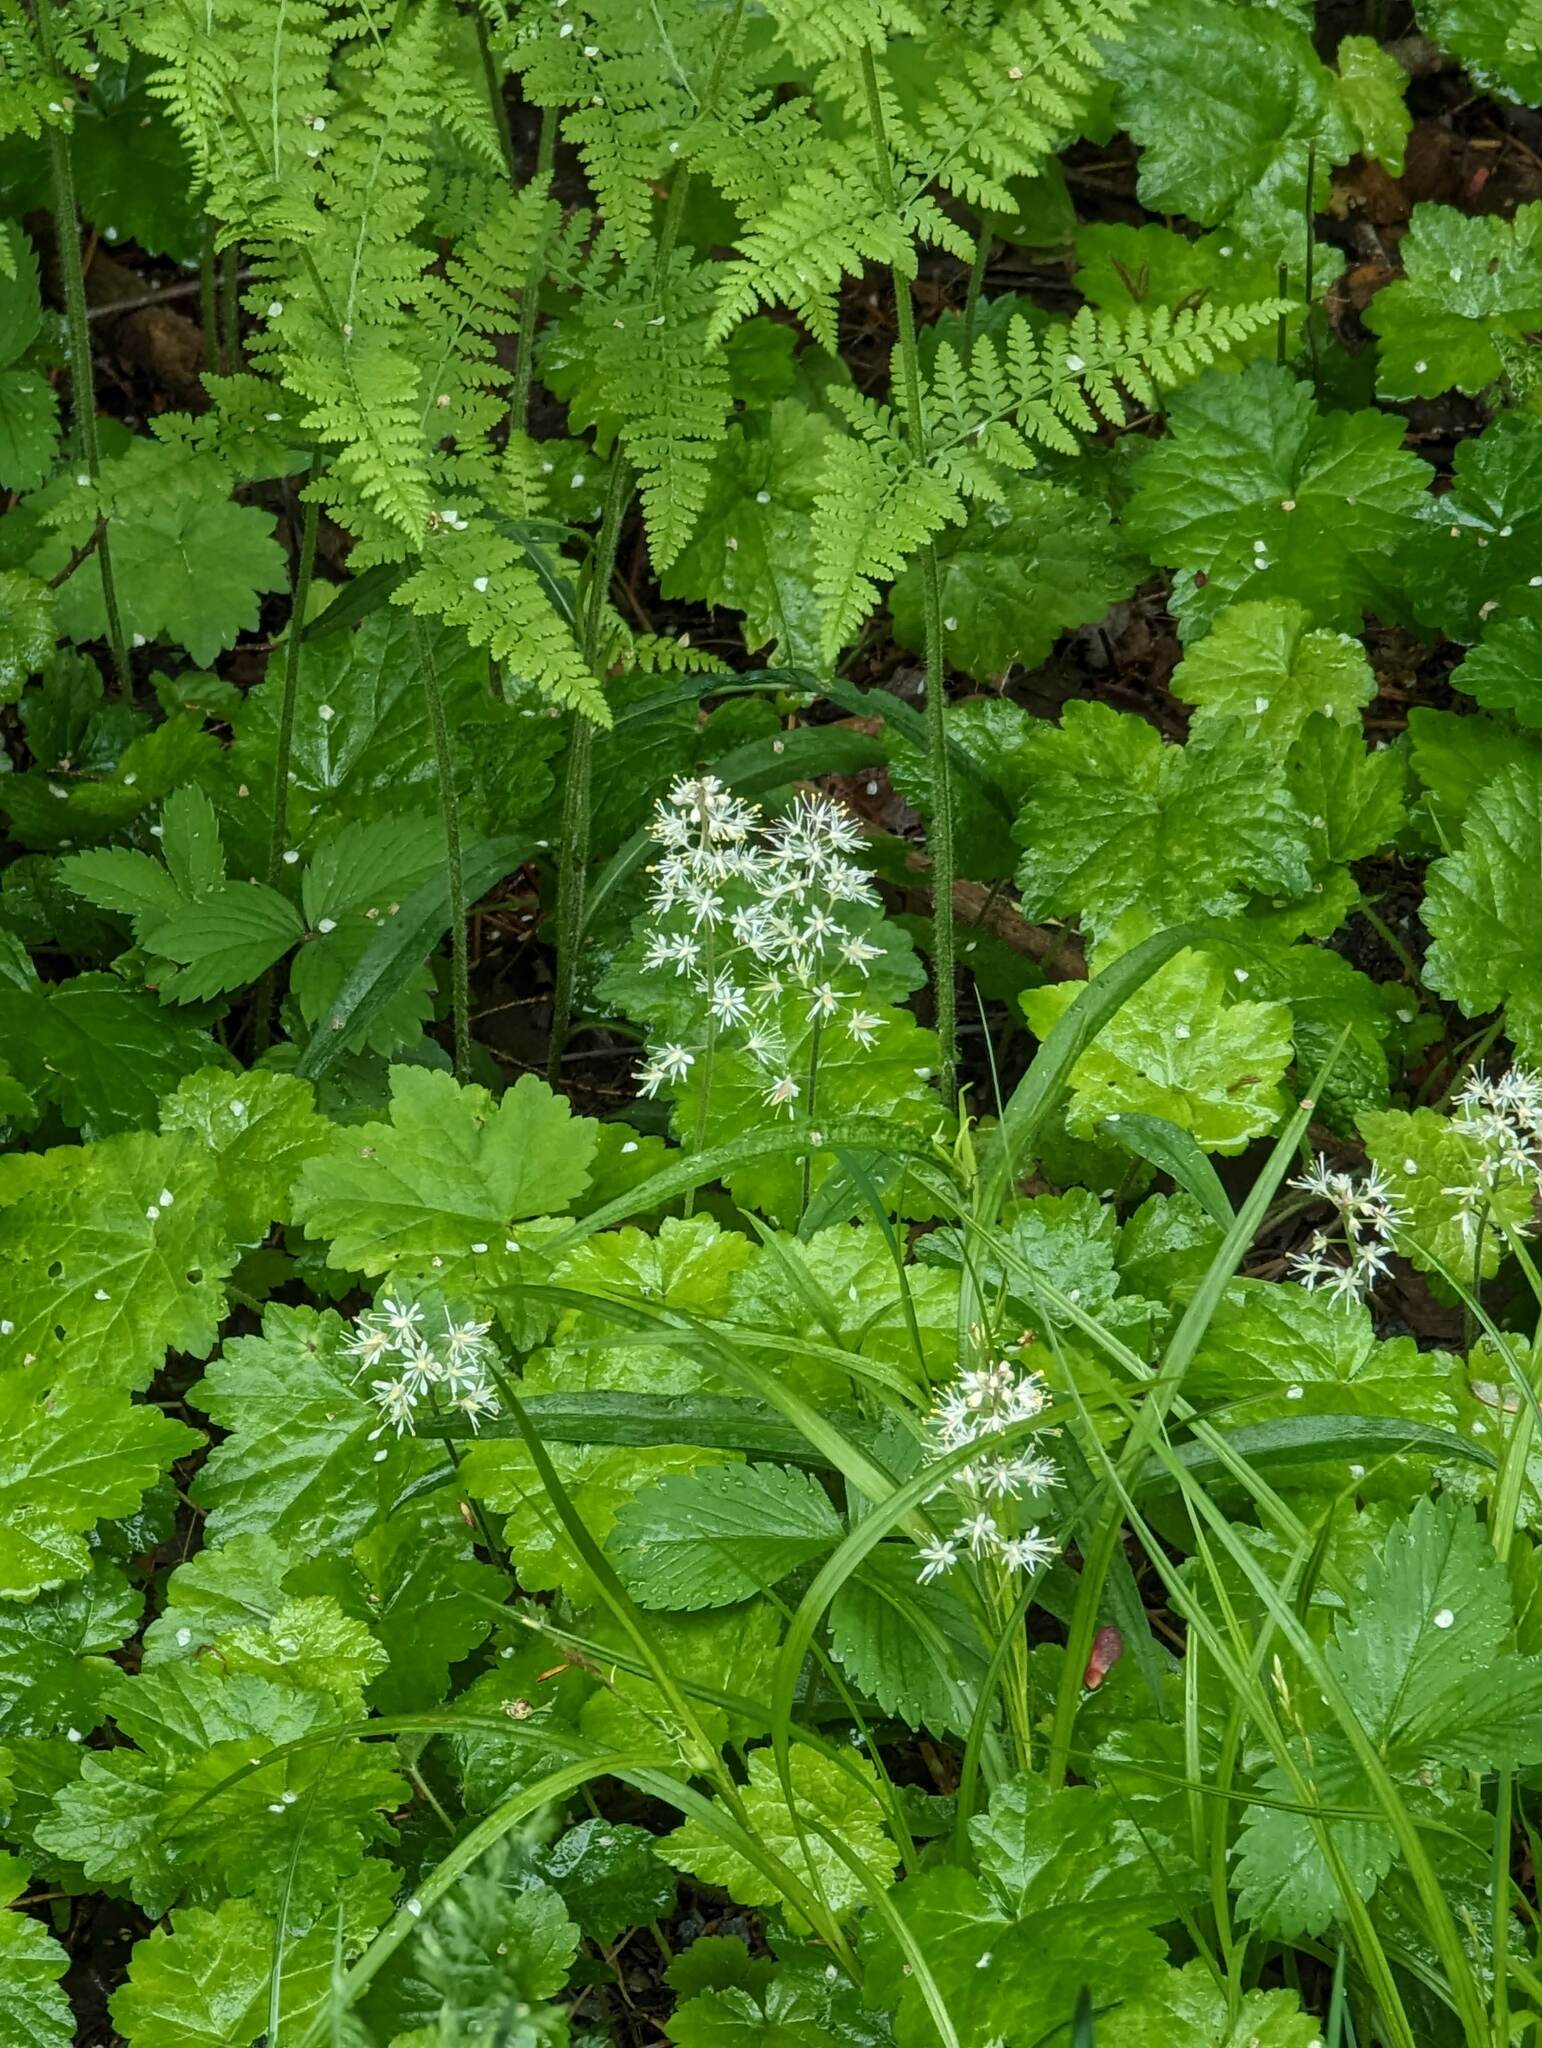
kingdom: Plantae
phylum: Tracheophyta
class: Magnoliopsida
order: Saxifragales
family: Saxifragaceae
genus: Tiarella
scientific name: Tiarella stolonifera
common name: Stoloniferous foamflower
